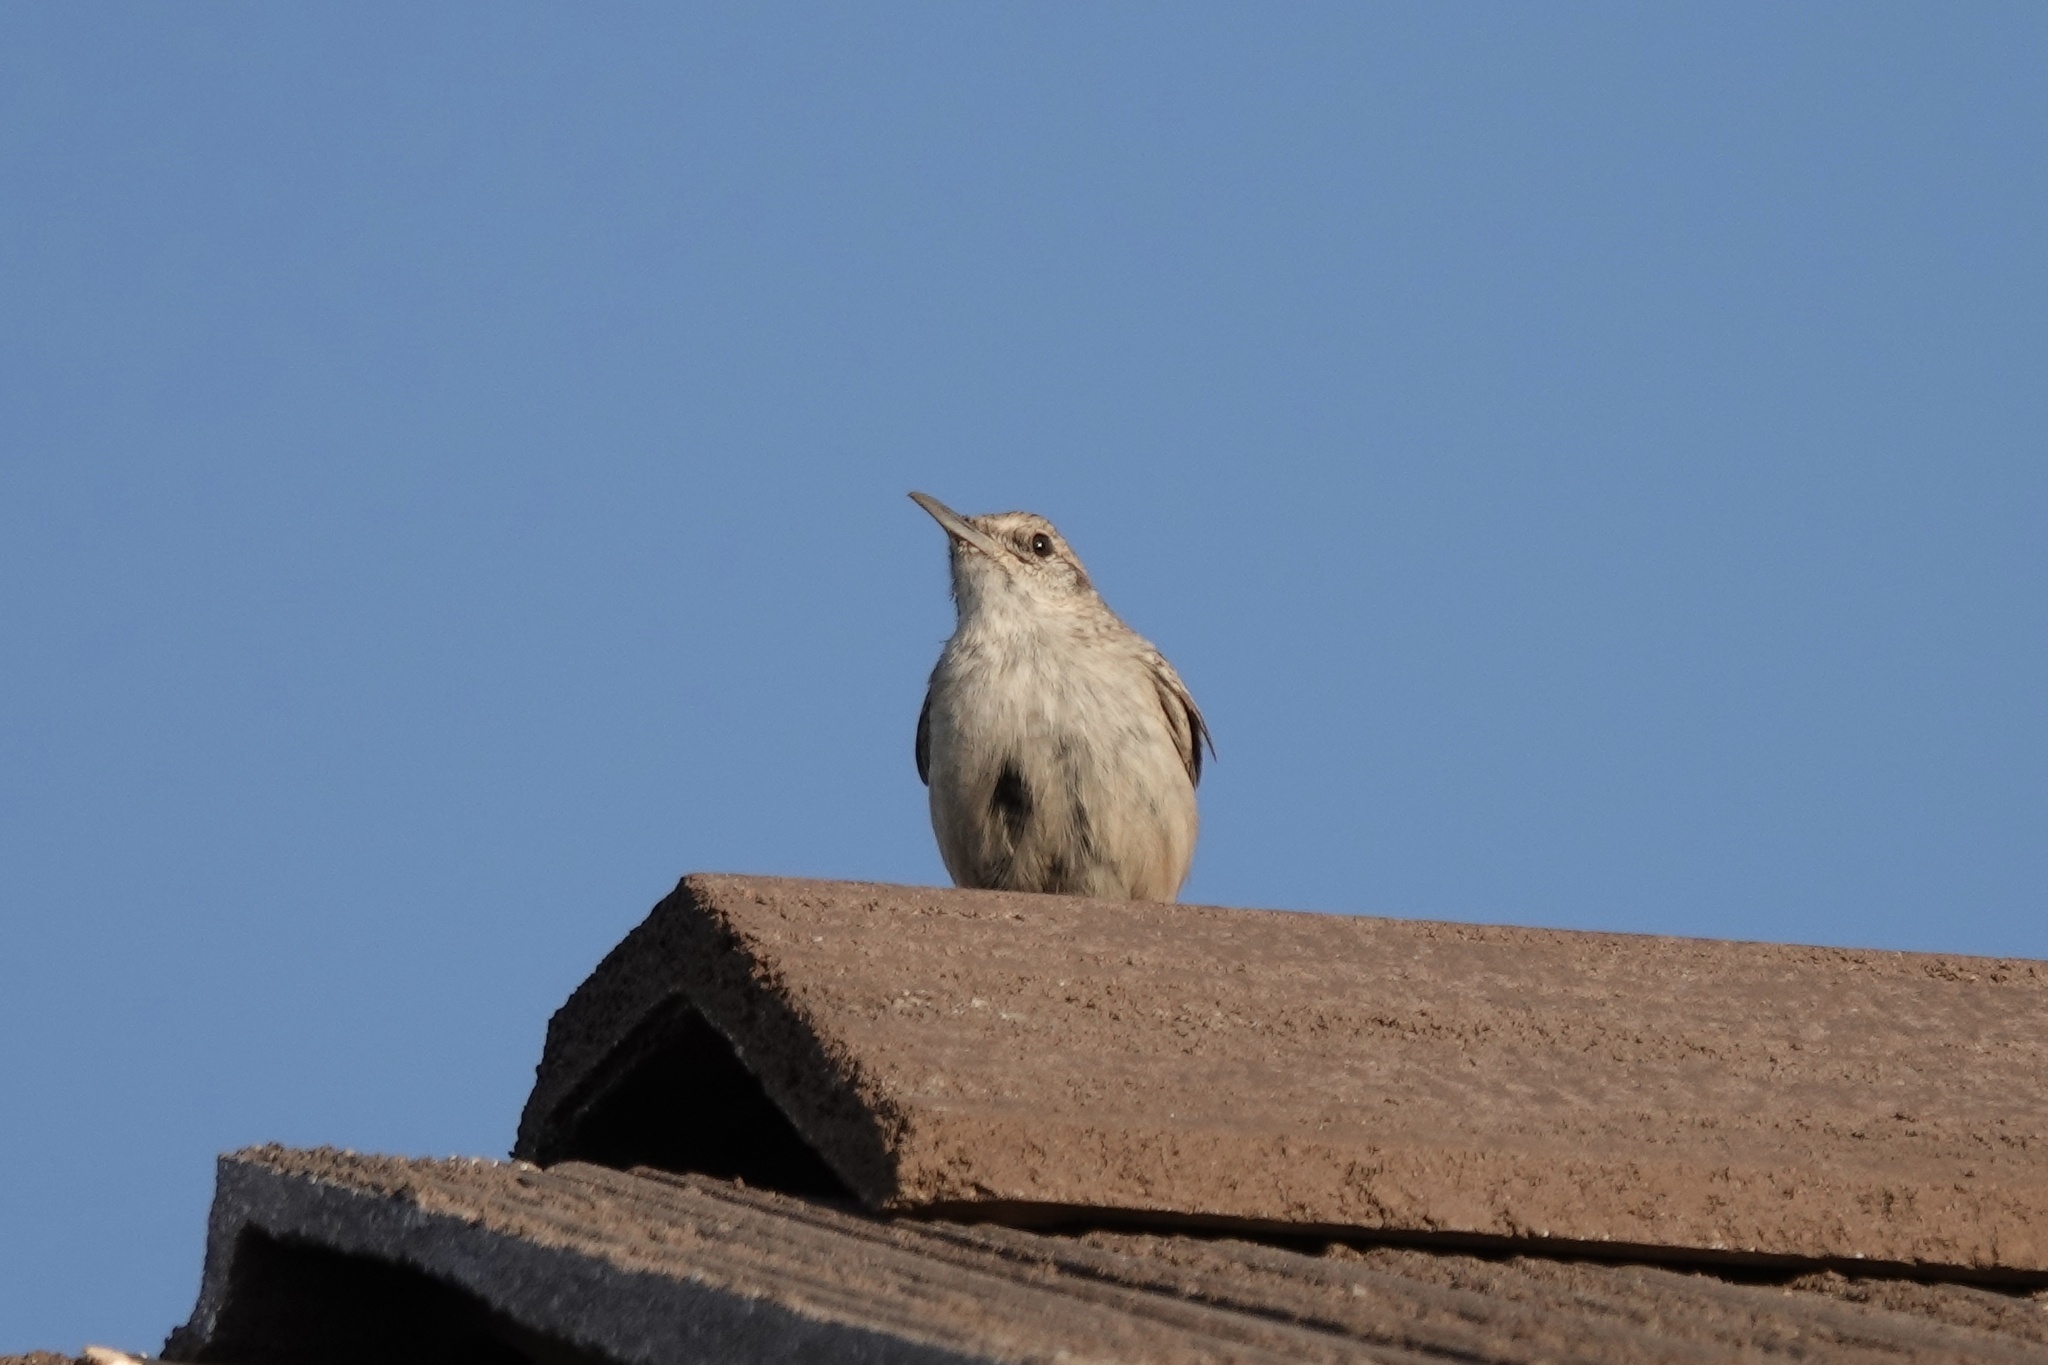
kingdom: Animalia
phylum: Chordata
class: Aves
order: Passeriformes
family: Troglodytidae
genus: Salpinctes
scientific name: Salpinctes obsoletus
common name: Rock wren
